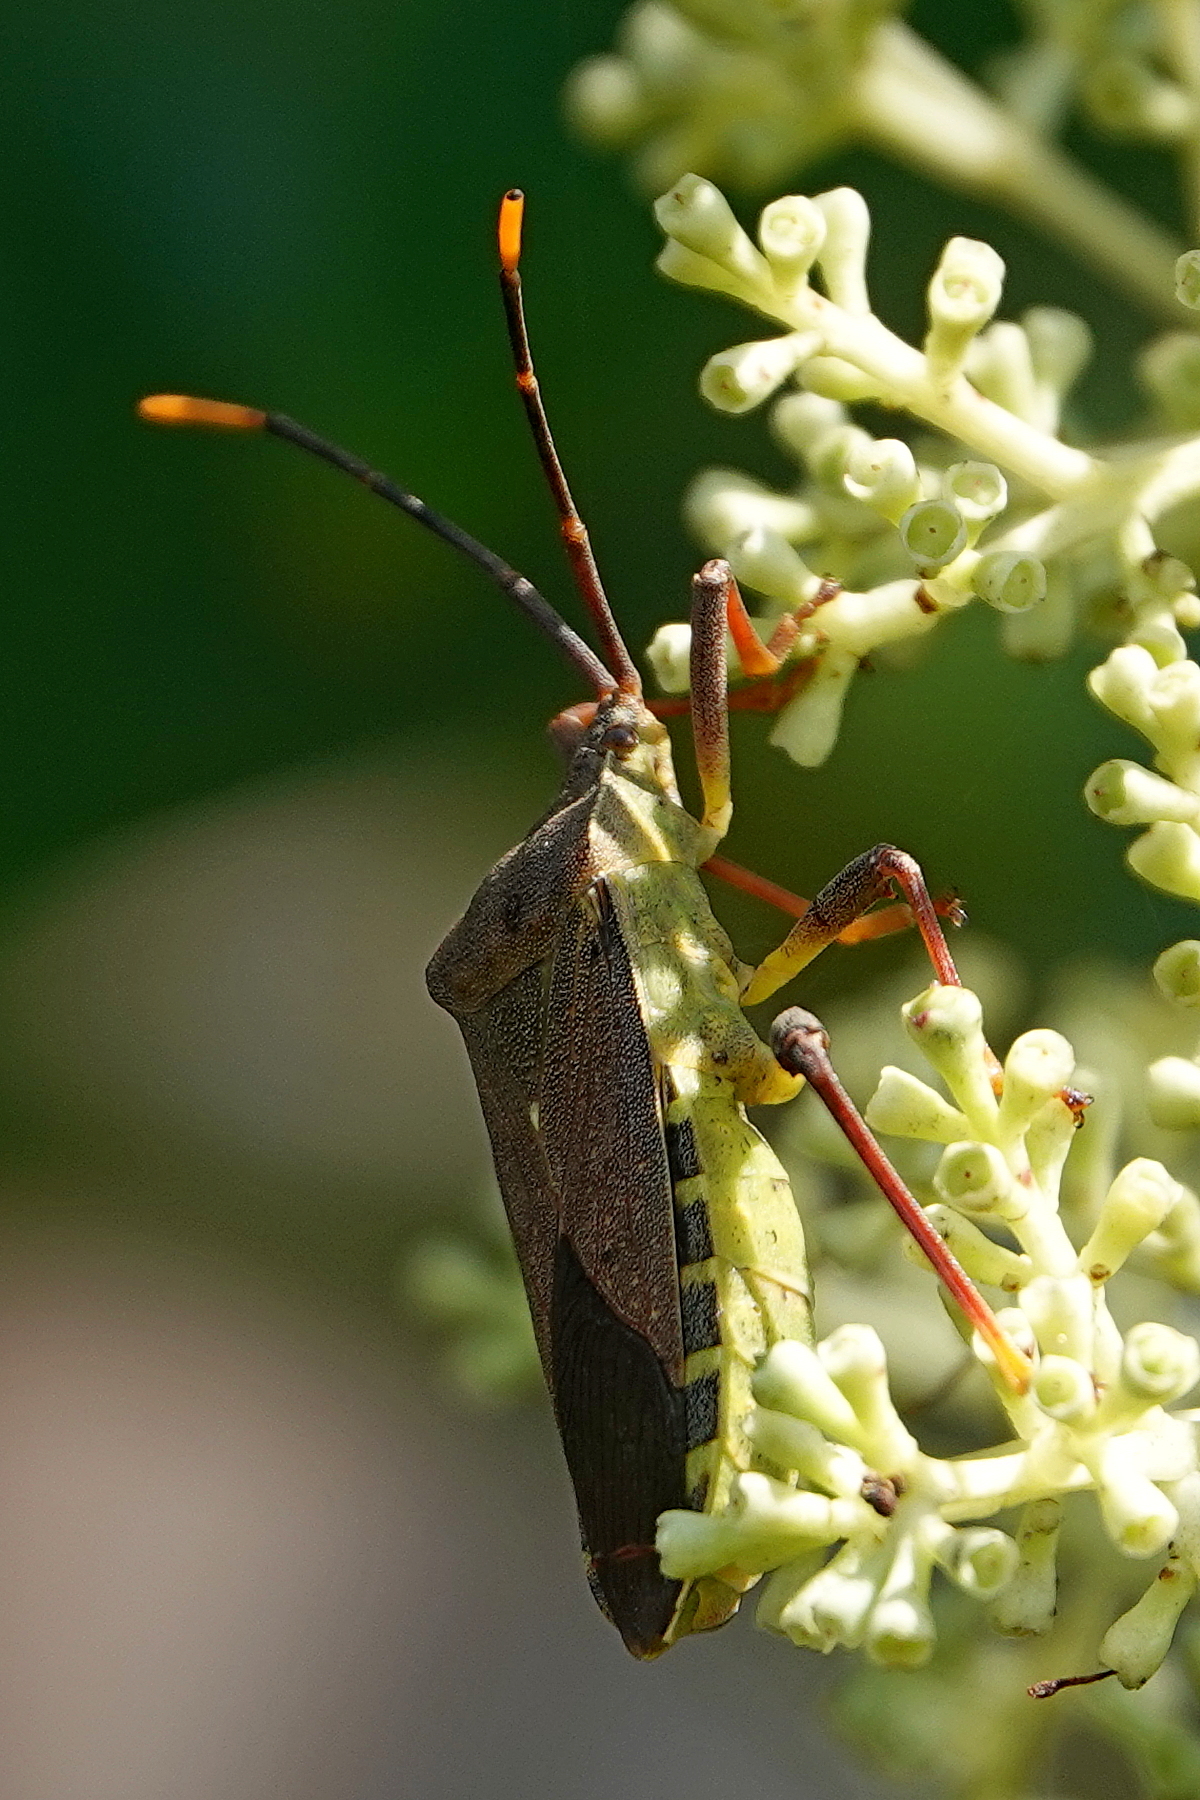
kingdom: Animalia
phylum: Arthropoda
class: Insecta
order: Hemiptera
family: Coreidae
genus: Amorbus
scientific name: Amorbus atomarius
